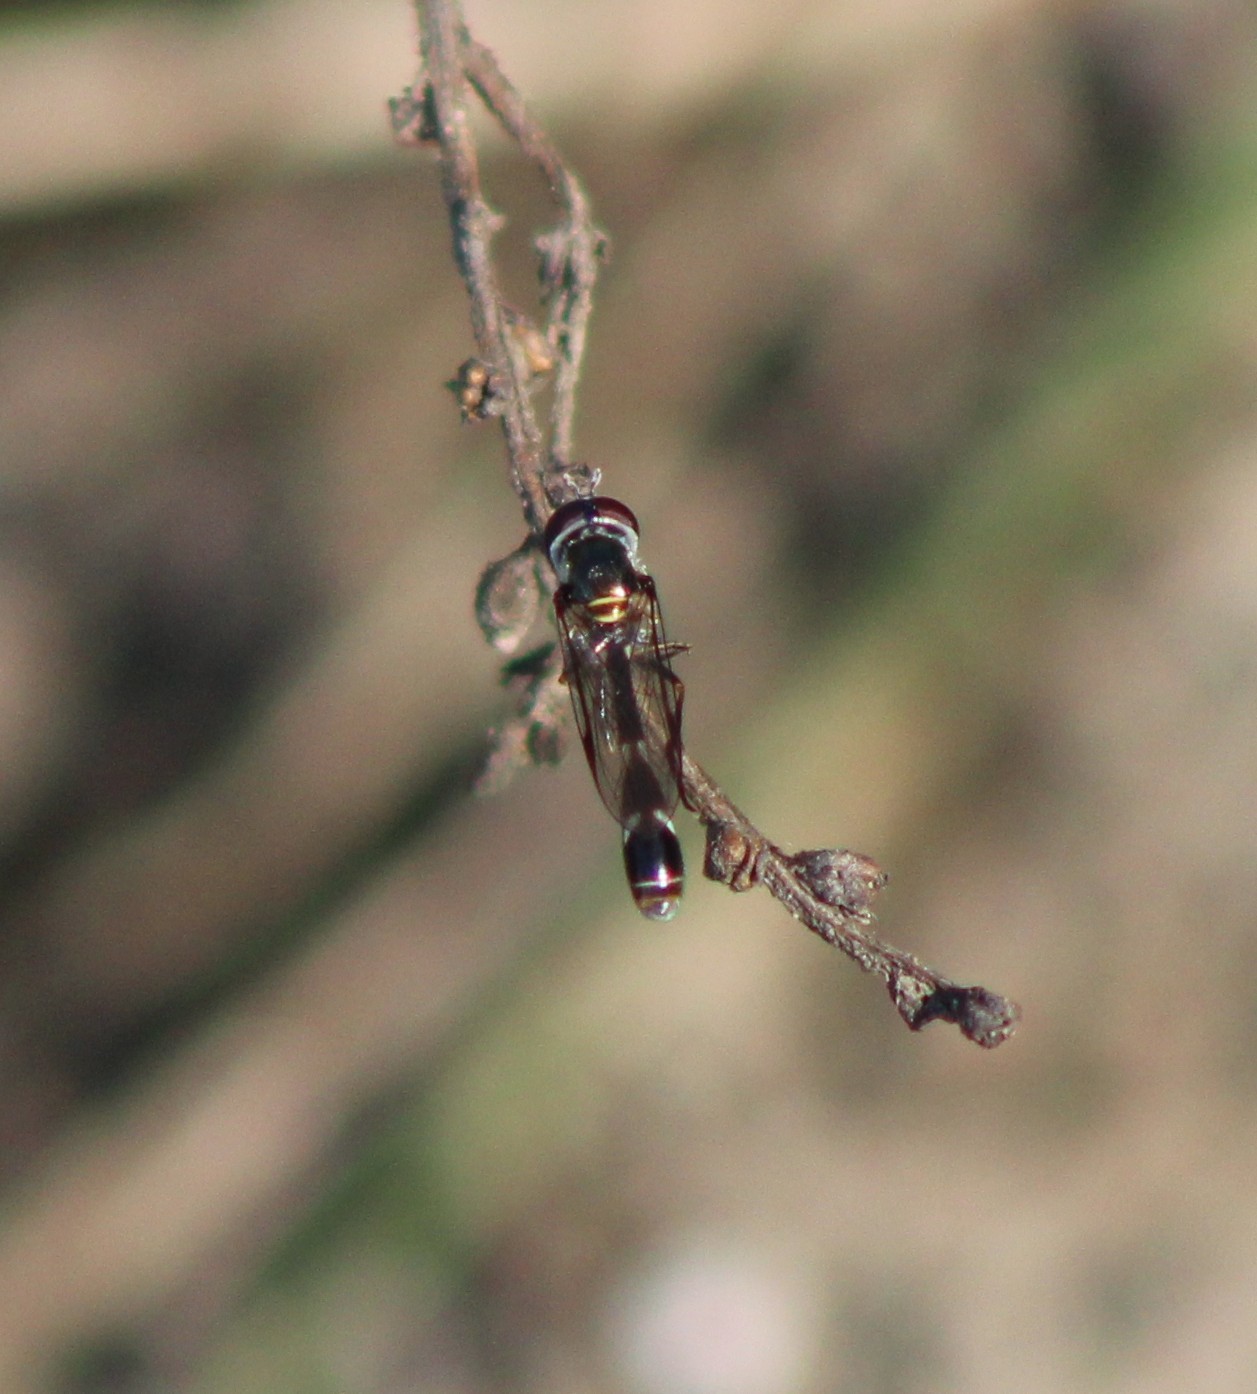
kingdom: Animalia
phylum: Arthropoda
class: Insecta
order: Diptera
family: Syrphidae
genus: Dioprosopa
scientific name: Dioprosopa clavatus
